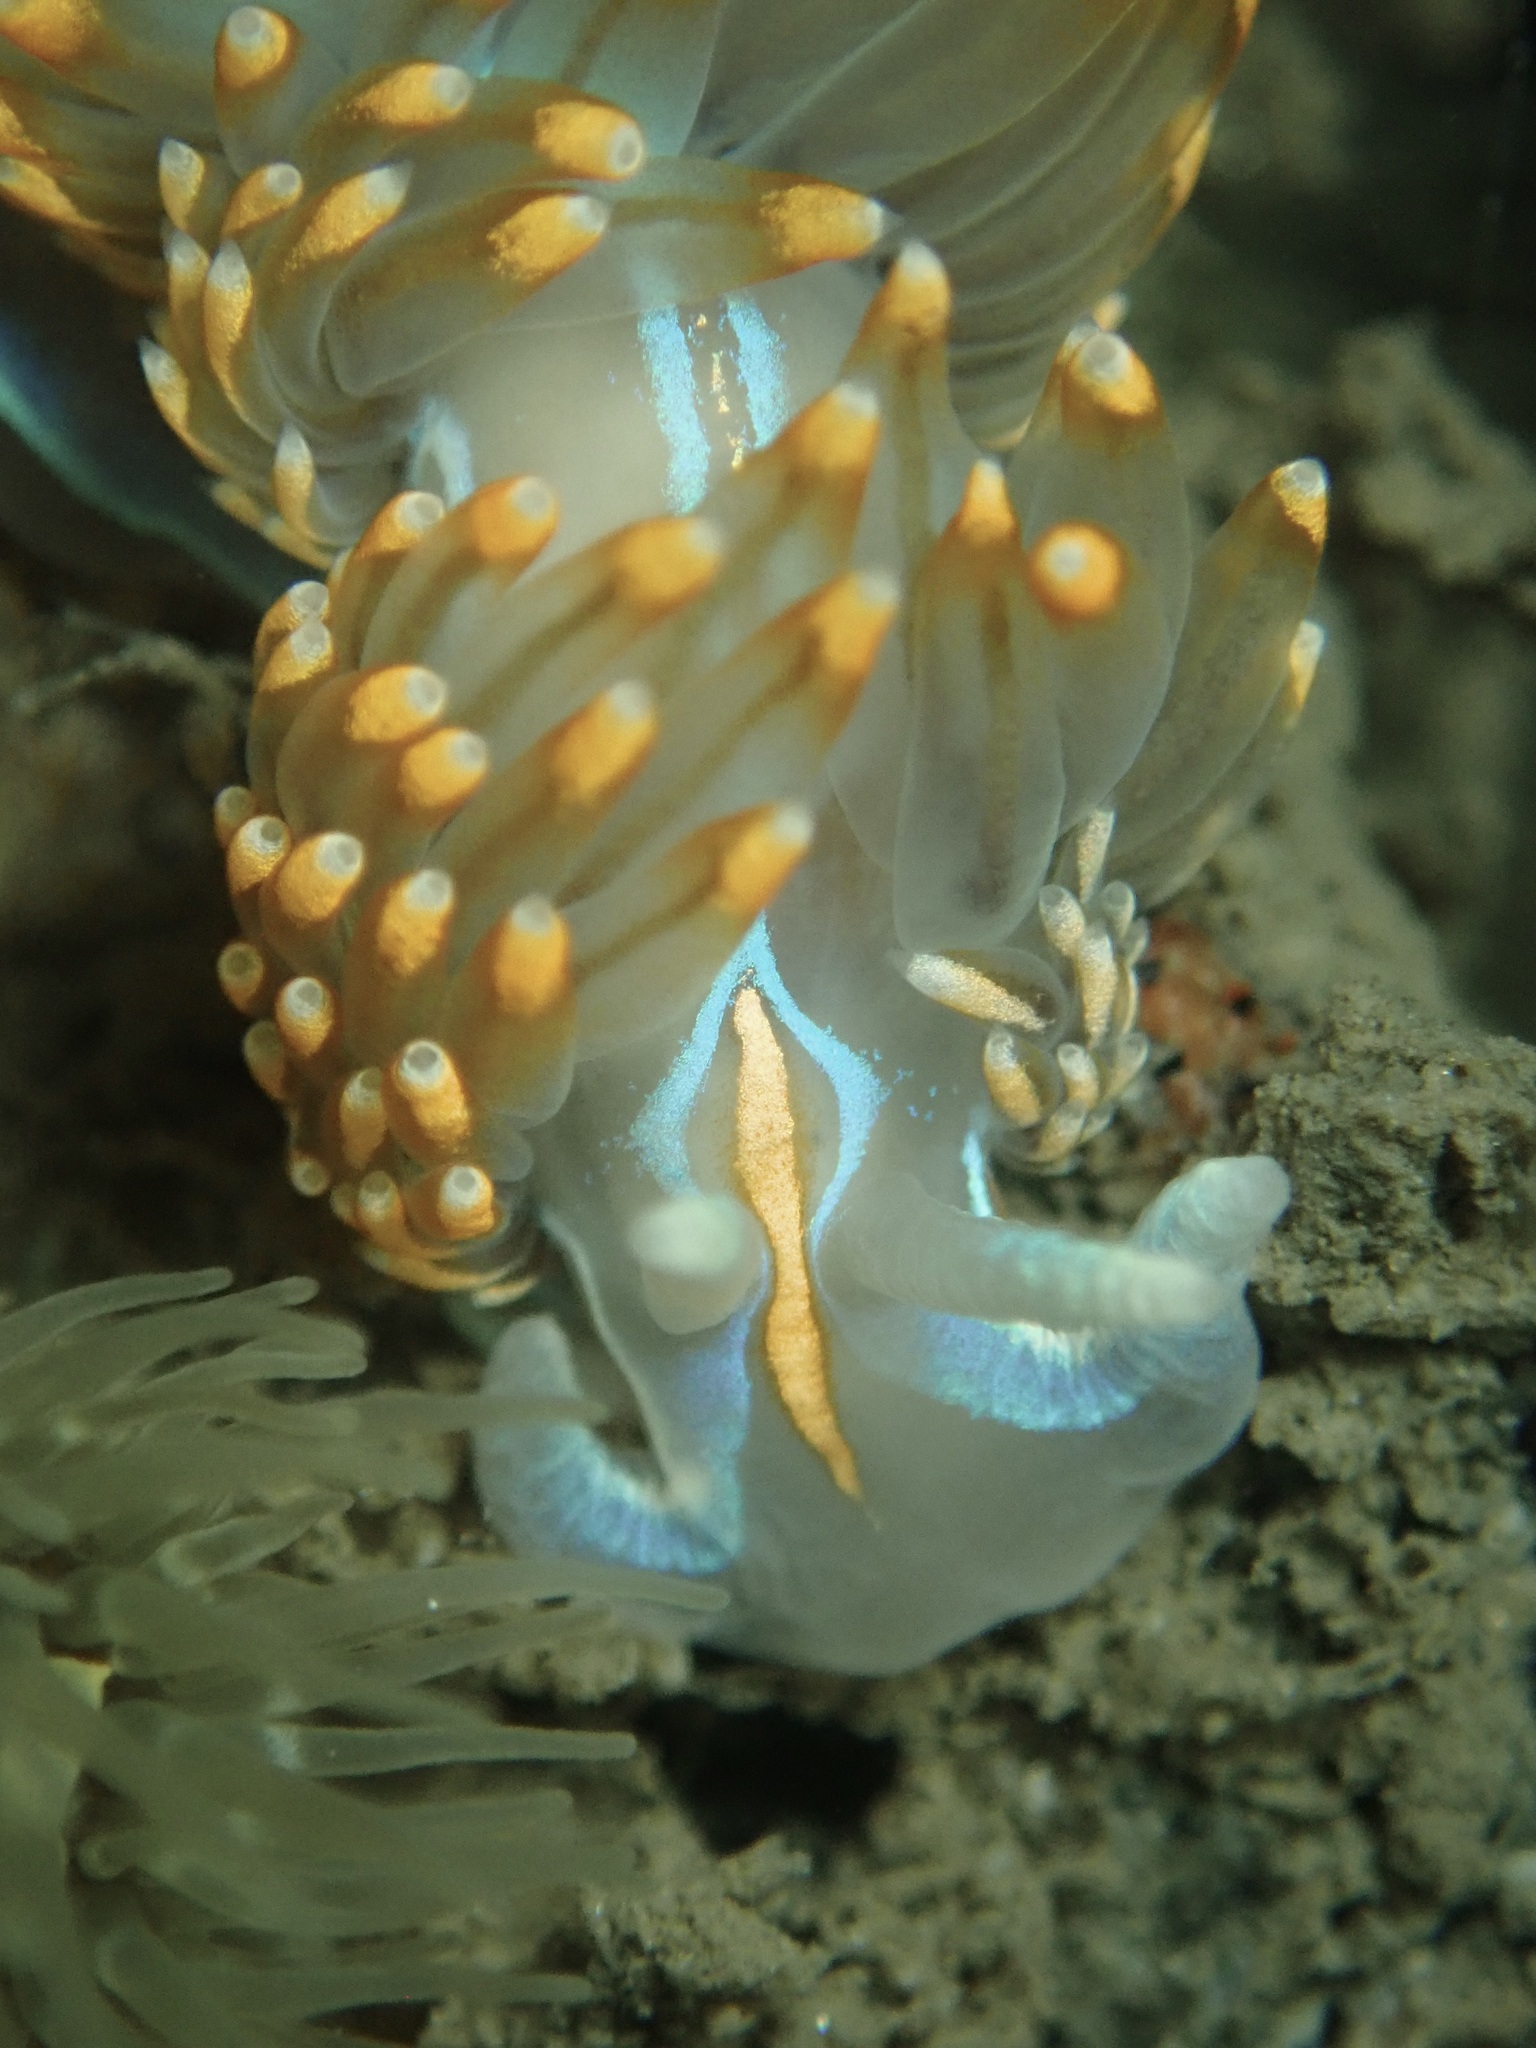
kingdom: Animalia
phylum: Mollusca
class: Gastropoda
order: Nudibranchia
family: Myrrhinidae
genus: Hermissenda
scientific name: Hermissenda opalescens
